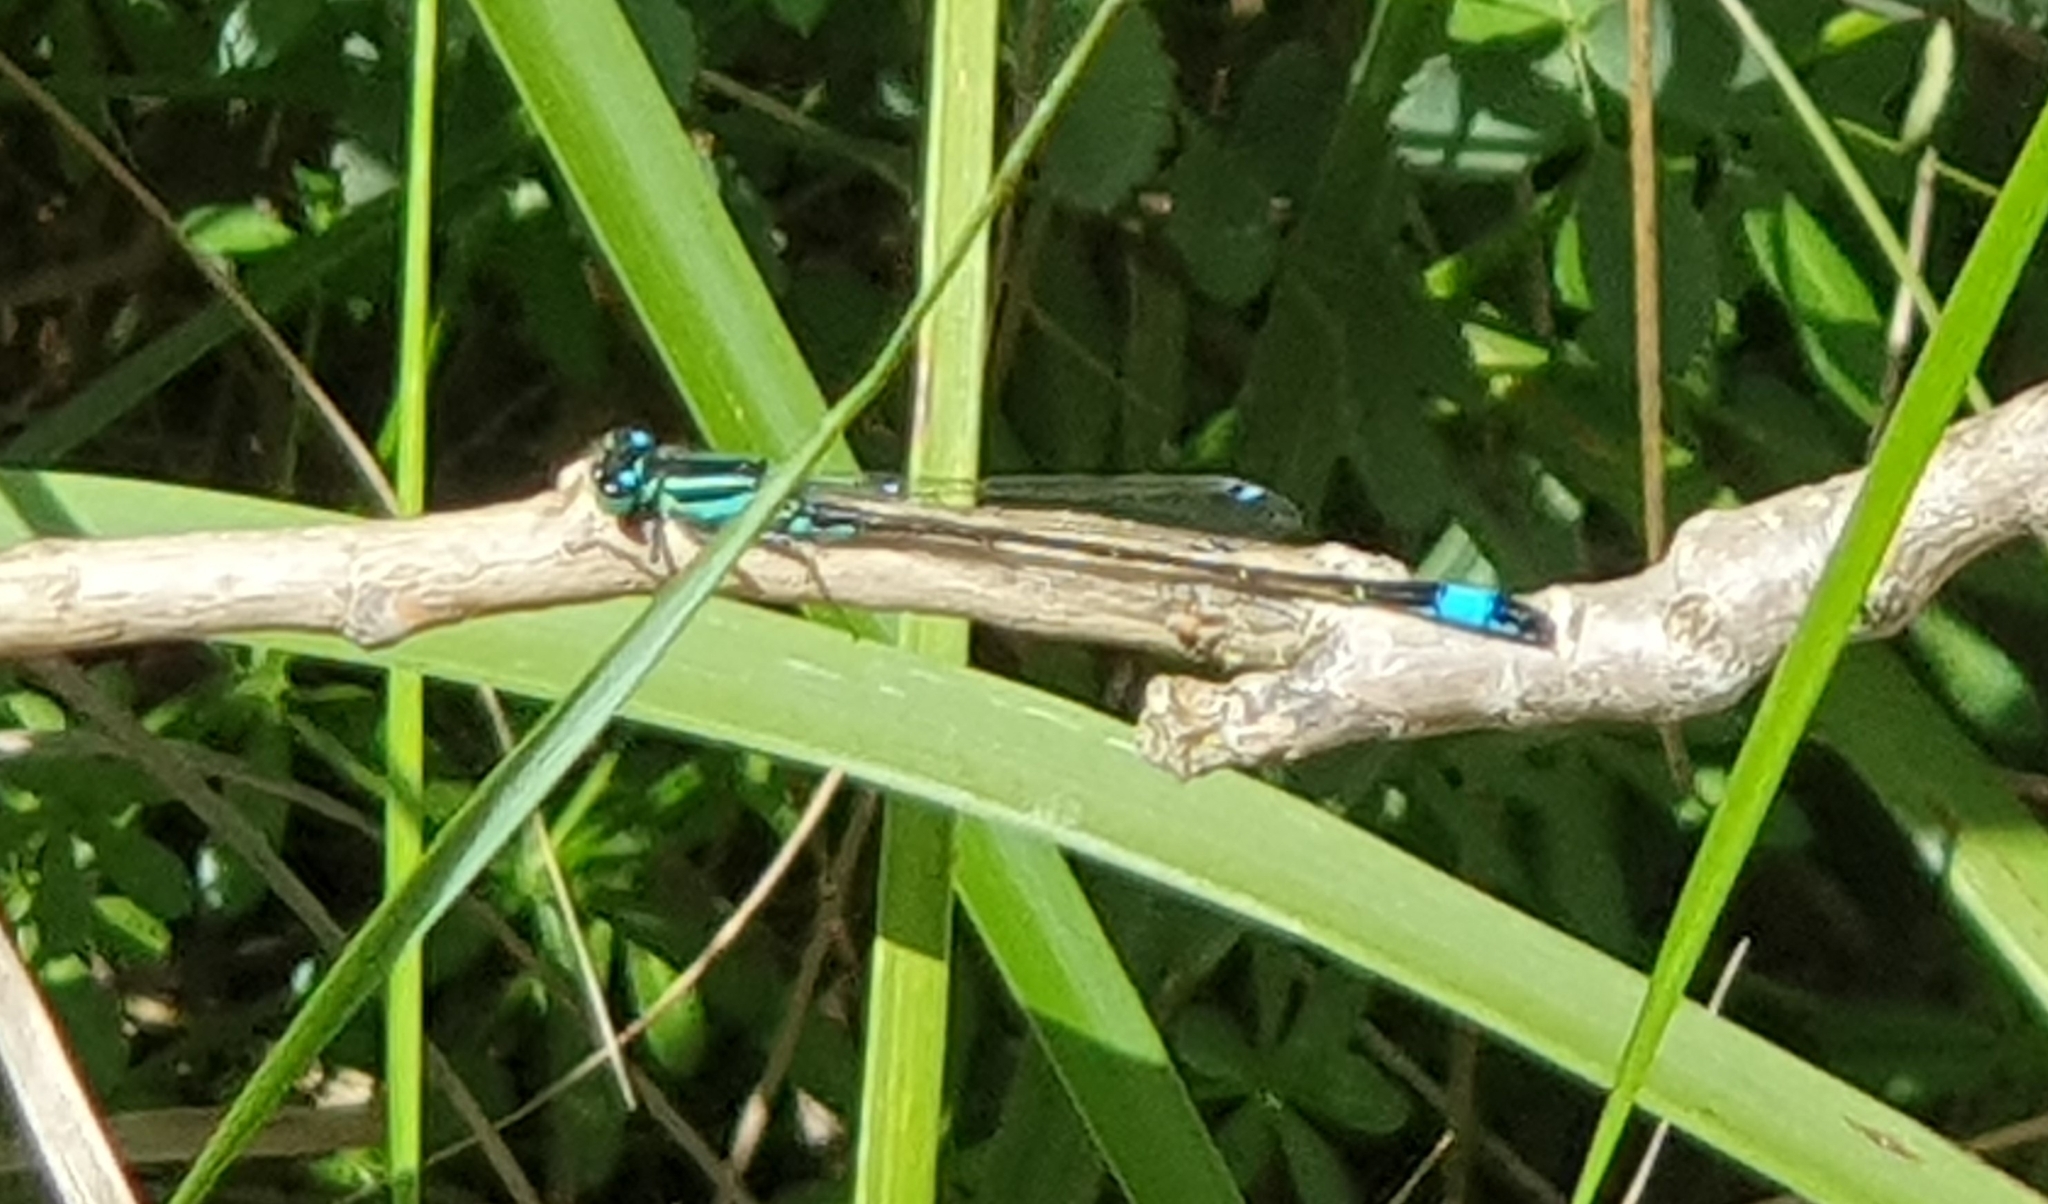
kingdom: Animalia
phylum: Arthropoda
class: Insecta
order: Odonata
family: Coenagrionidae
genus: Ischnura
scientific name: Ischnura elegans
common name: Blue-tailed damselfly
